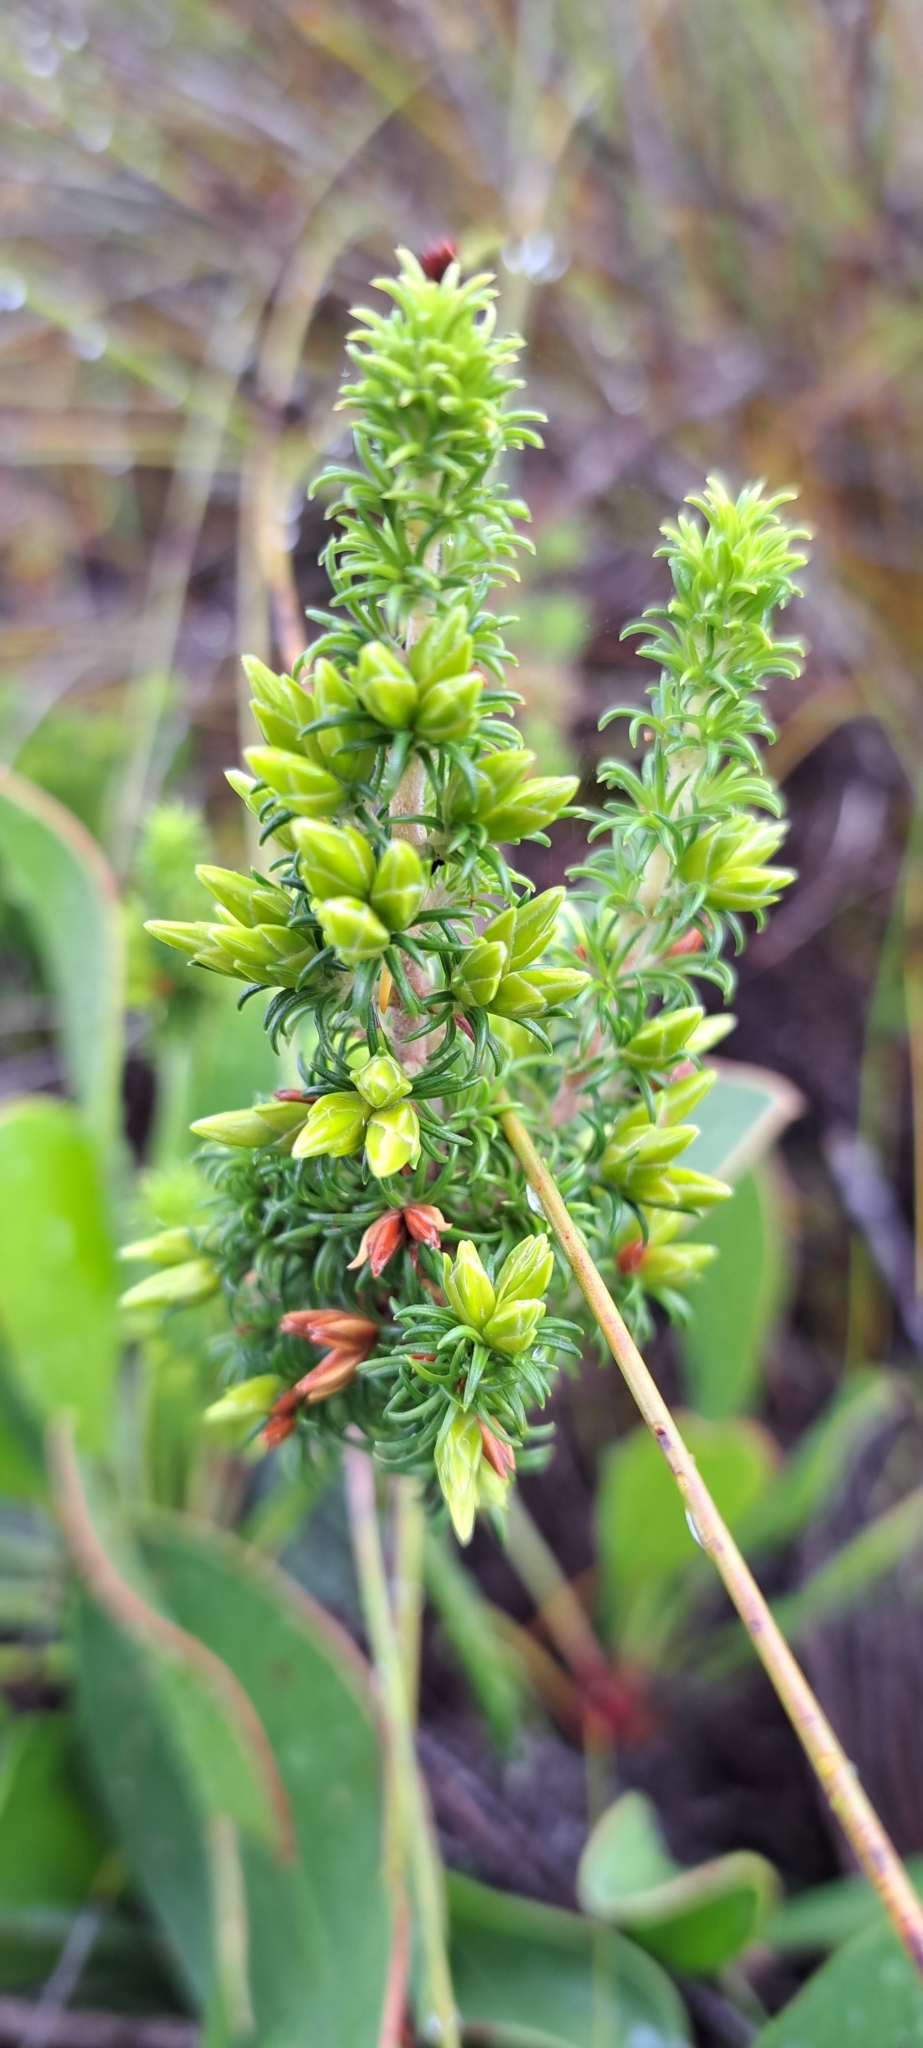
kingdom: Plantae
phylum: Tracheophyta
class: Magnoliopsida
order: Ericales
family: Ericaceae
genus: Erica
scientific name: Erica coccinea
